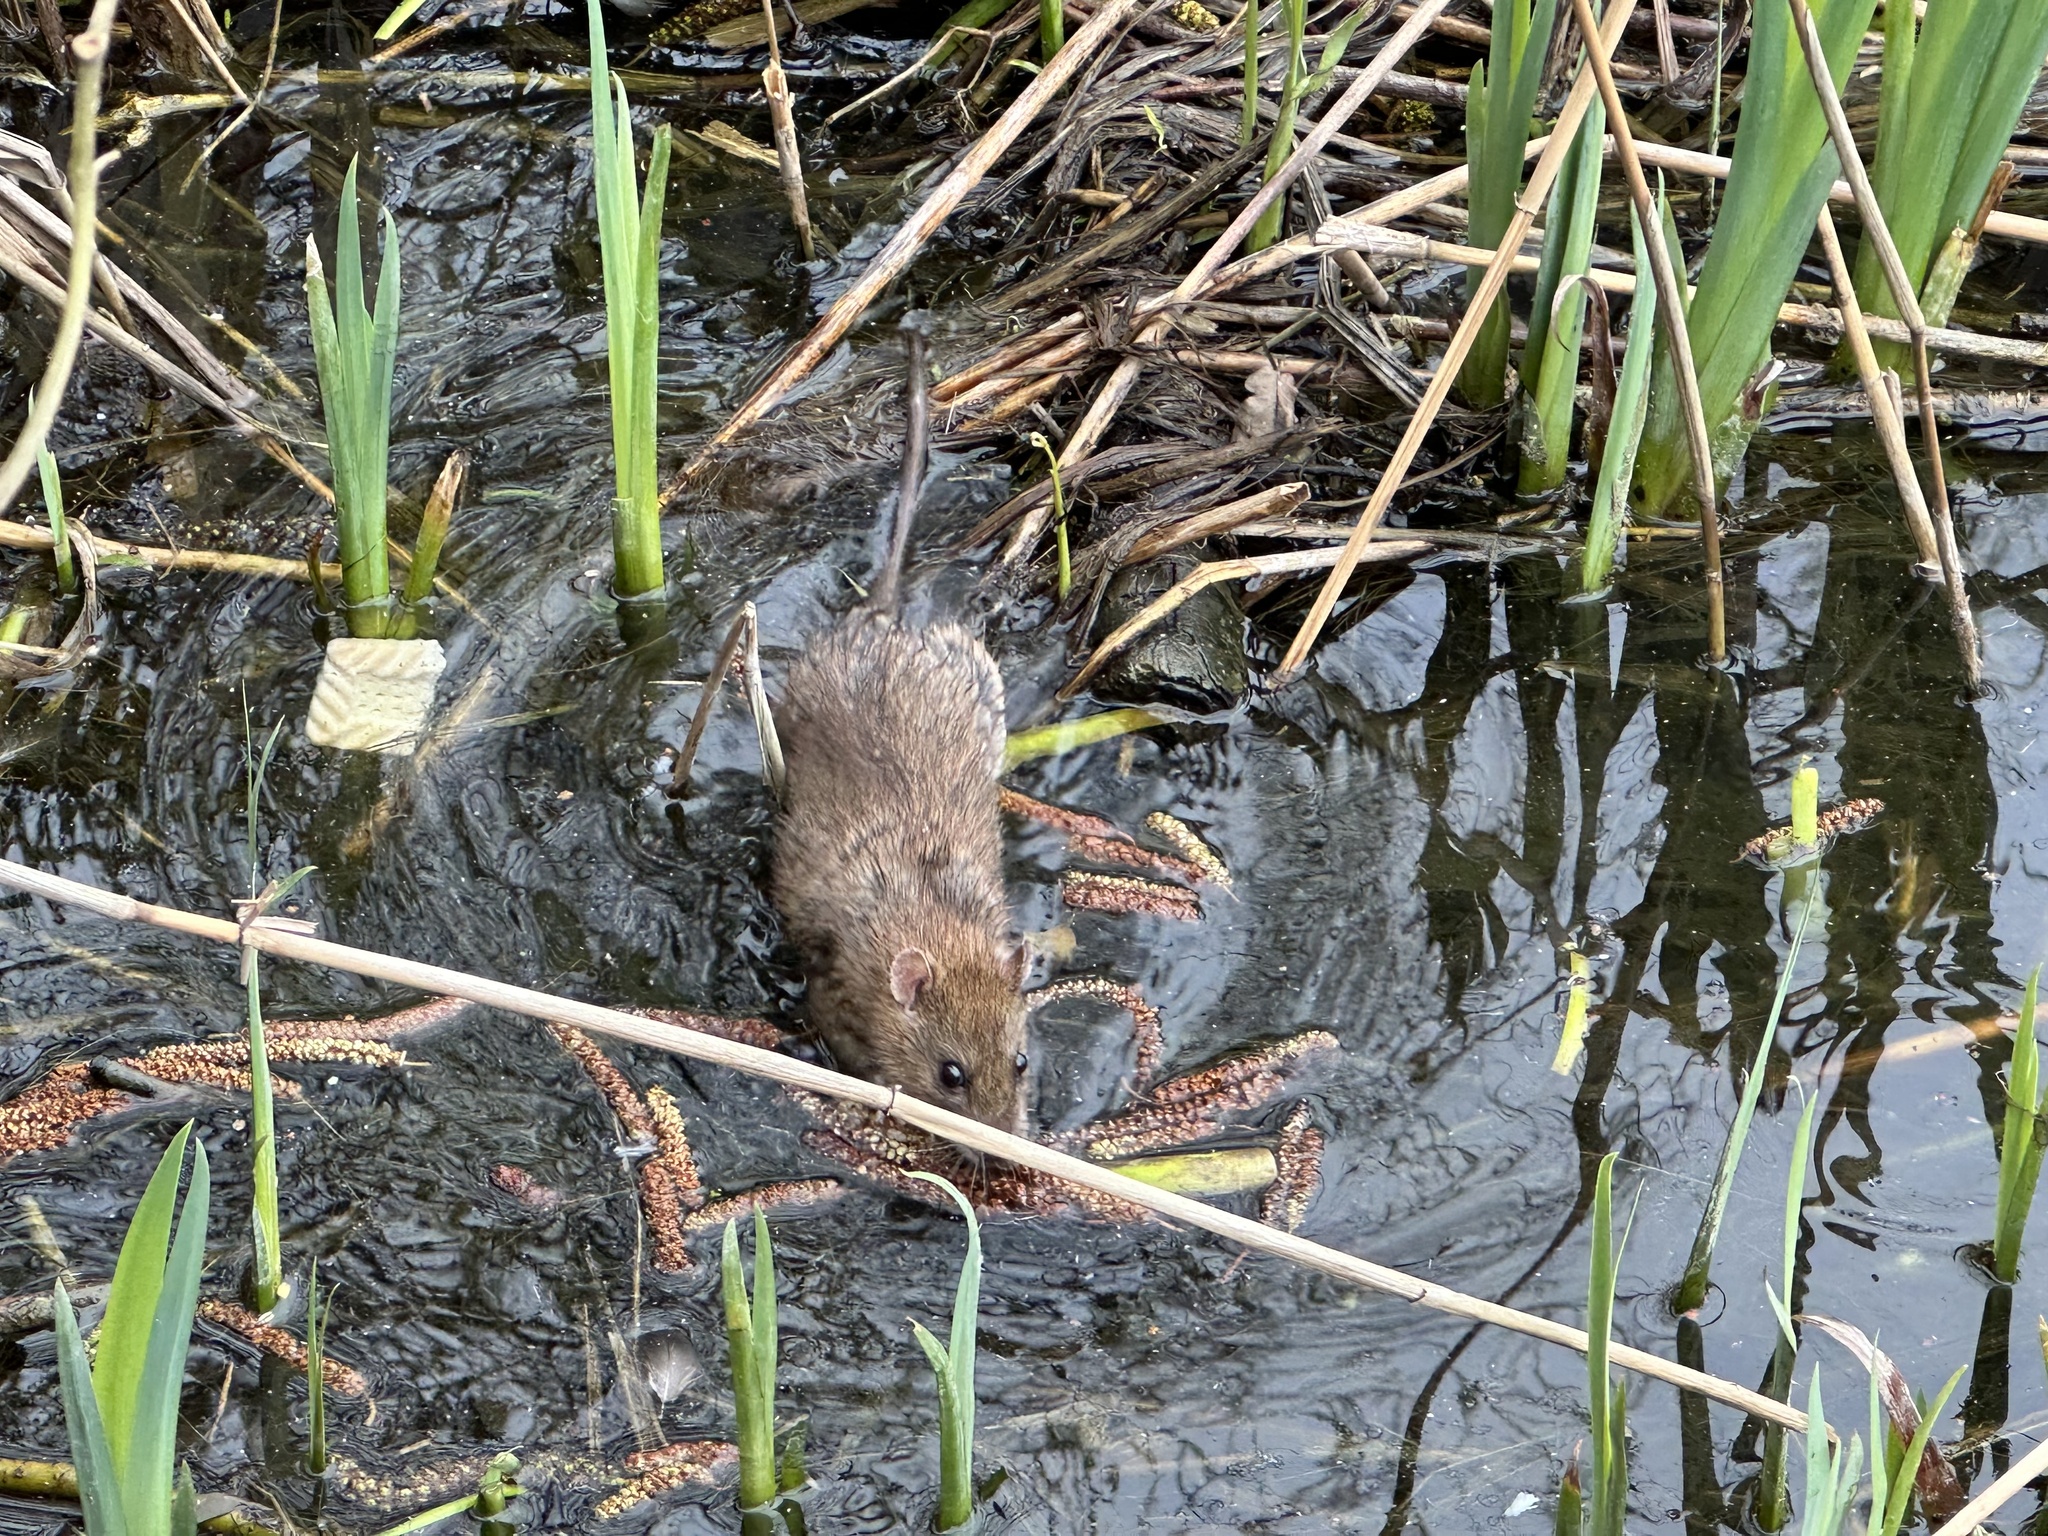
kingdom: Animalia
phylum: Chordata
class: Mammalia
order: Rodentia
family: Muridae
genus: Rattus
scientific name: Rattus norvegicus
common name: Brown rat
